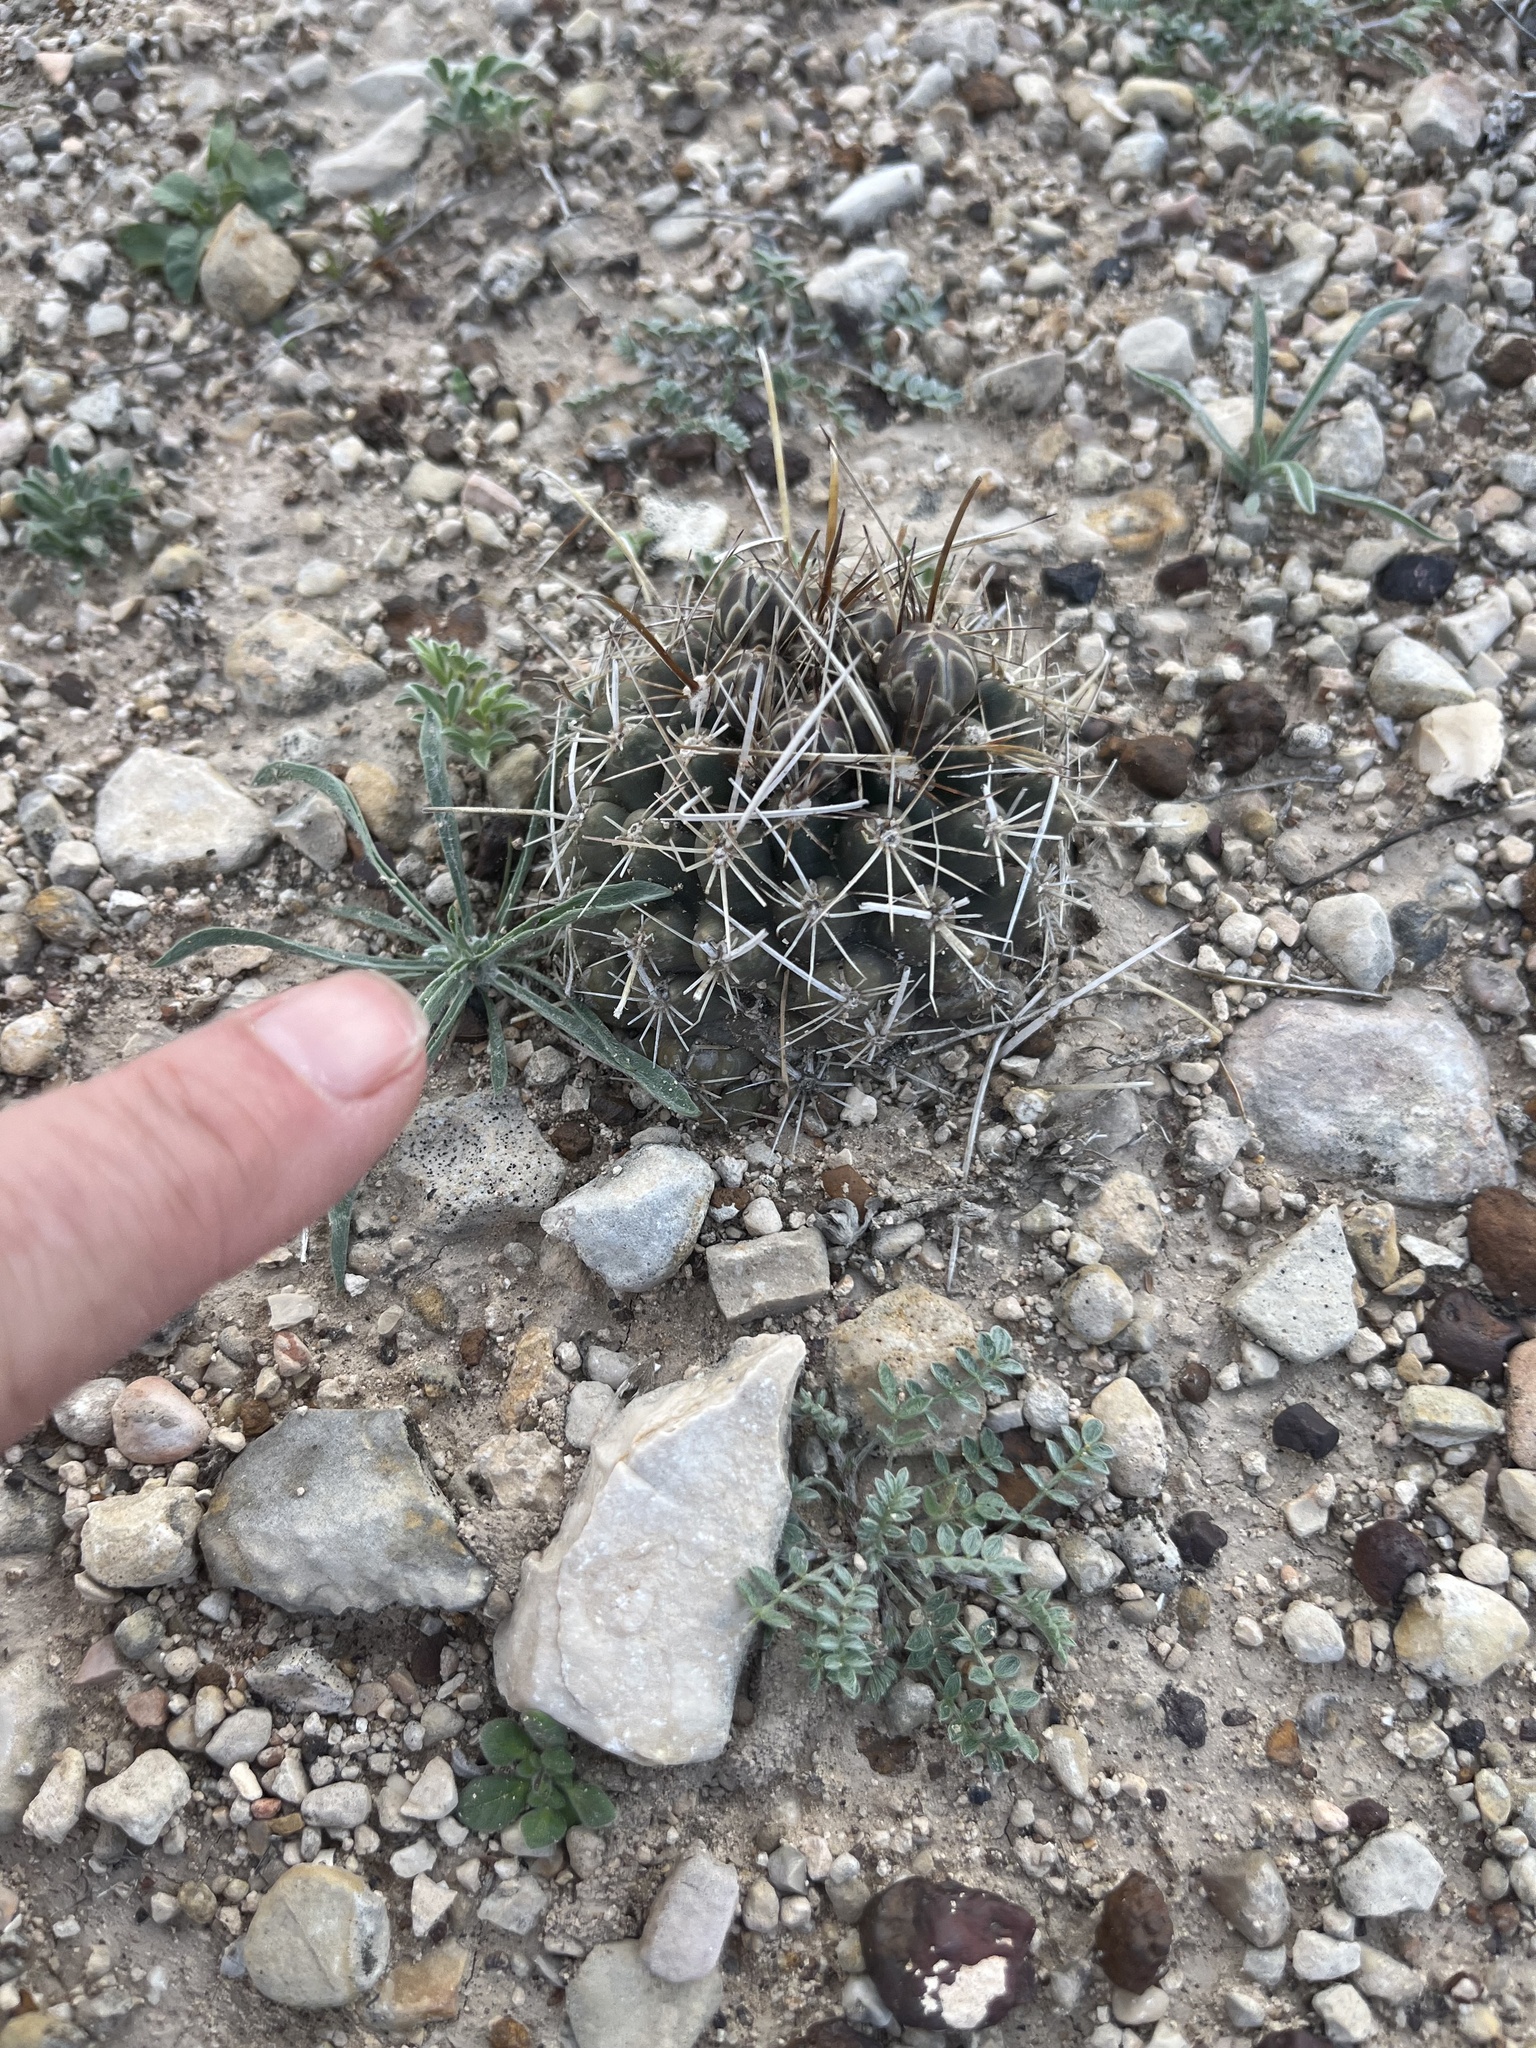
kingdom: Plantae
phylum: Tracheophyta
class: Magnoliopsida
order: Caryophyllales
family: Cactaceae
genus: Sclerocactus
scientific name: Sclerocactus brevihamatus
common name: Engelmann's fishhook cactus
